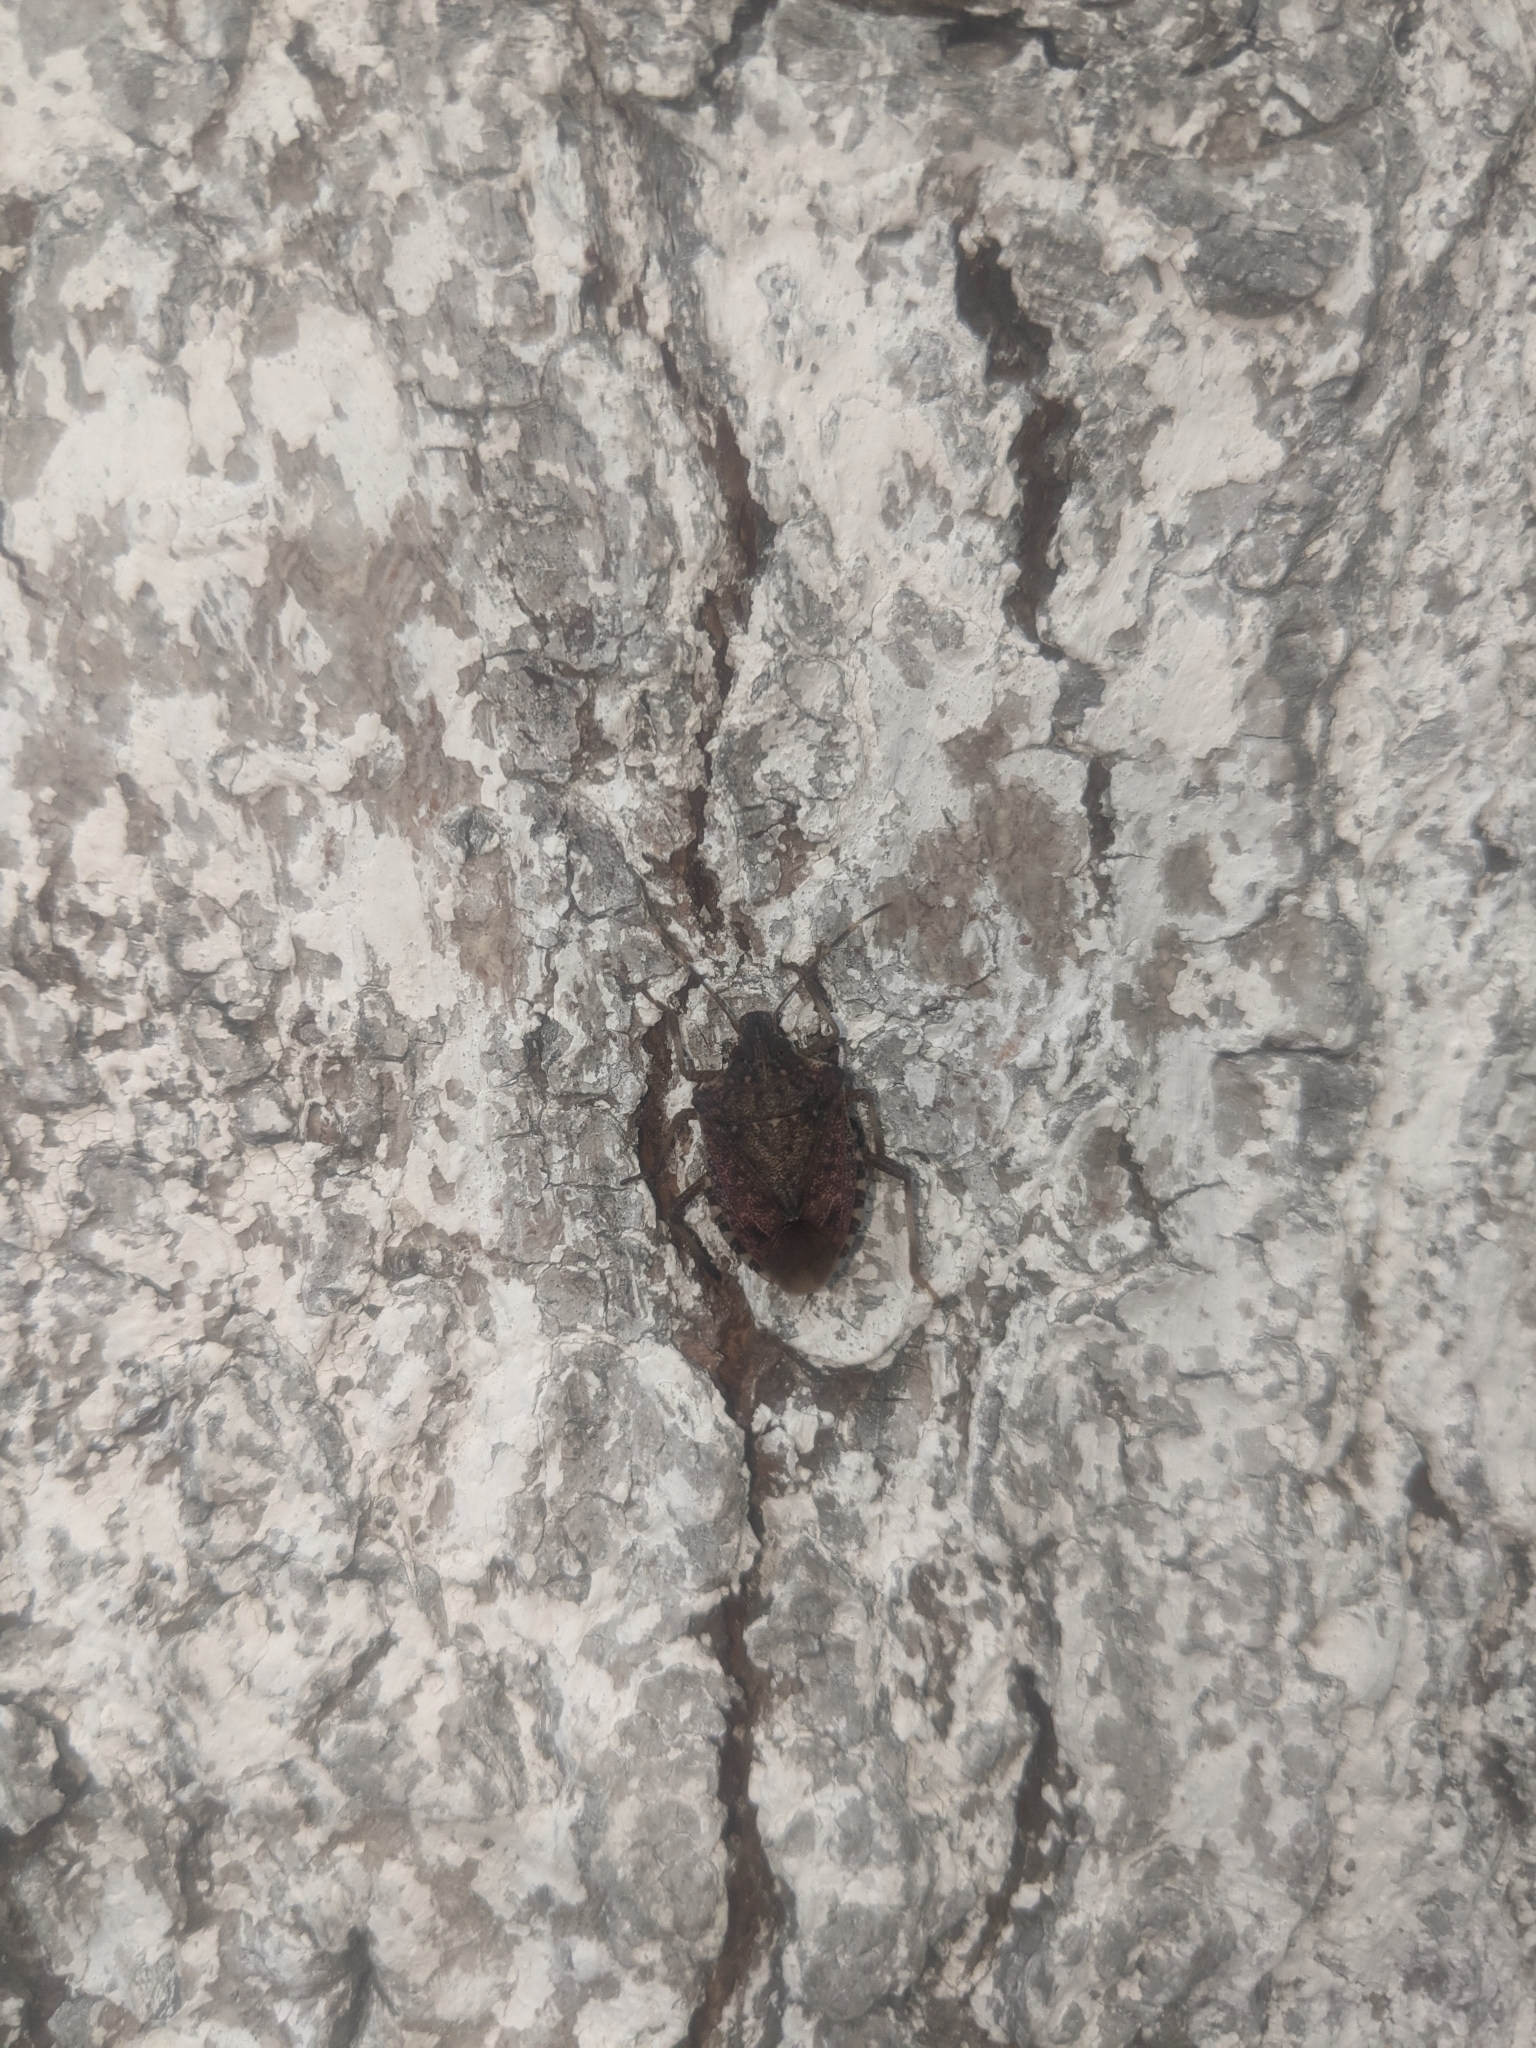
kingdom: Animalia
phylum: Arthropoda
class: Insecta
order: Hemiptera
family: Pentatomidae
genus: Halyomorpha
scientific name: Halyomorpha halys
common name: Brown marmorated stink bug
